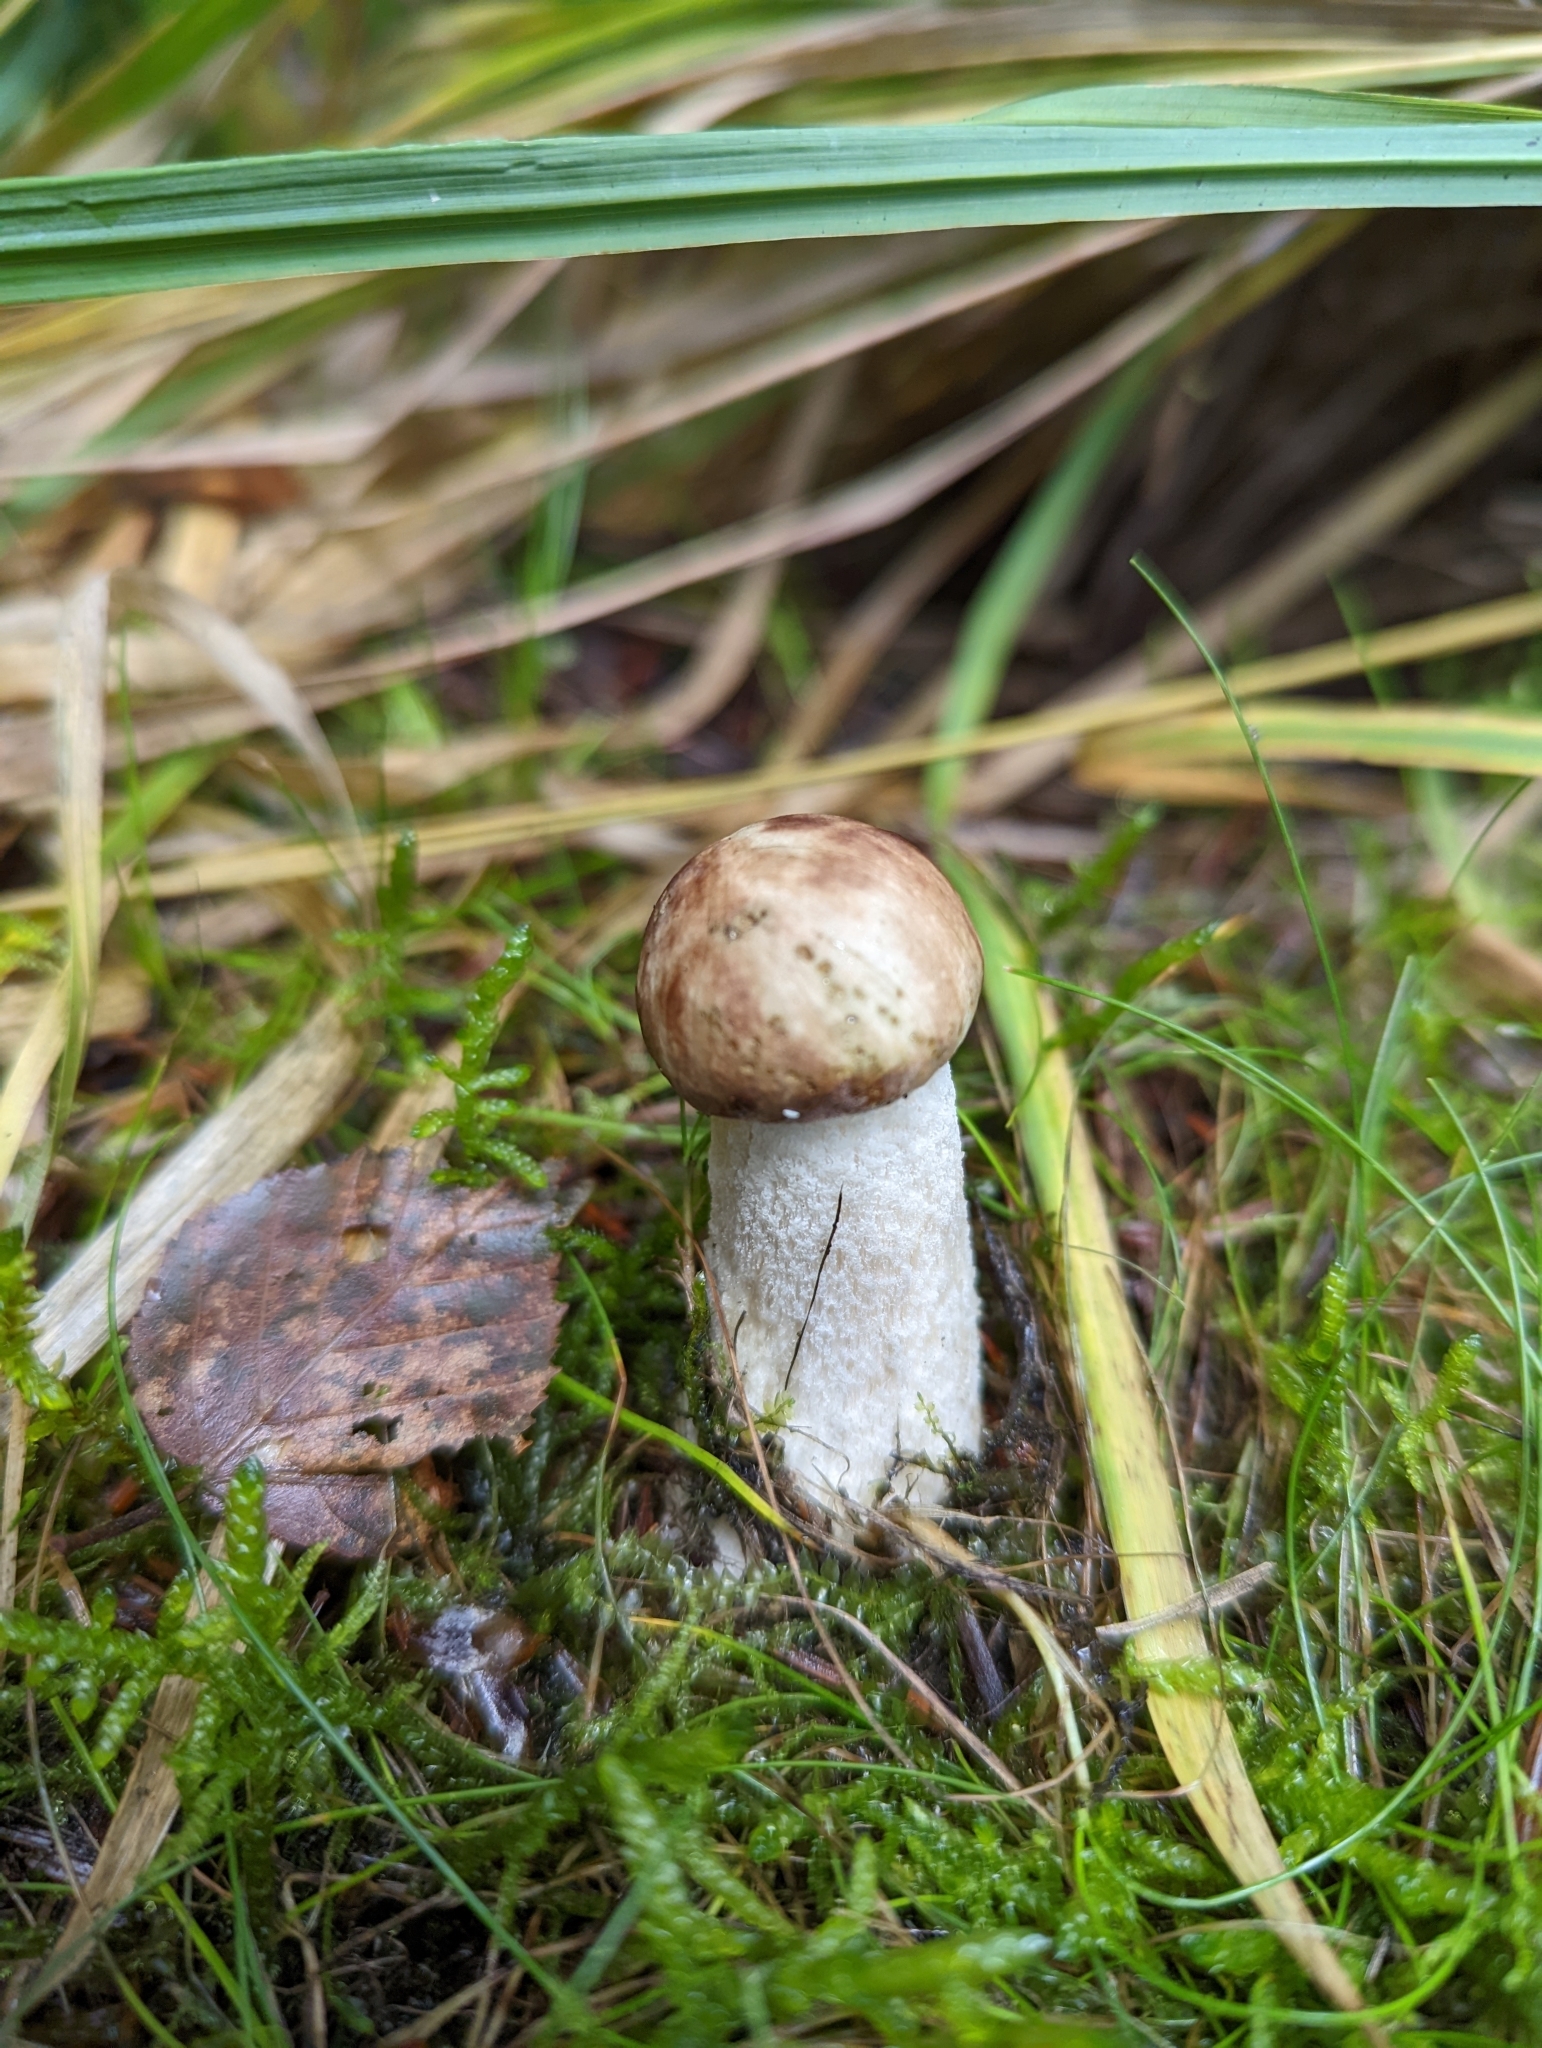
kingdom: Fungi
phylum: Basidiomycota
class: Agaricomycetes
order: Boletales
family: Boletaceae
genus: Leccinum
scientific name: Leccinum scabrum
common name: Blushing bolete
